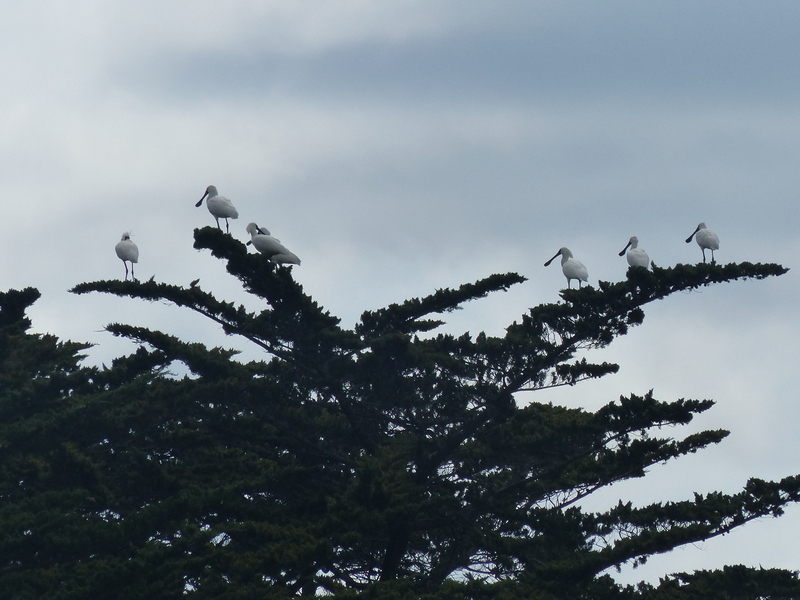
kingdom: Animalia
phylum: Chordata
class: Aves
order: Pelecaniformes
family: Threskiornithidae
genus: Platalea
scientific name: Platalea regia
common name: Royal spoonbill
